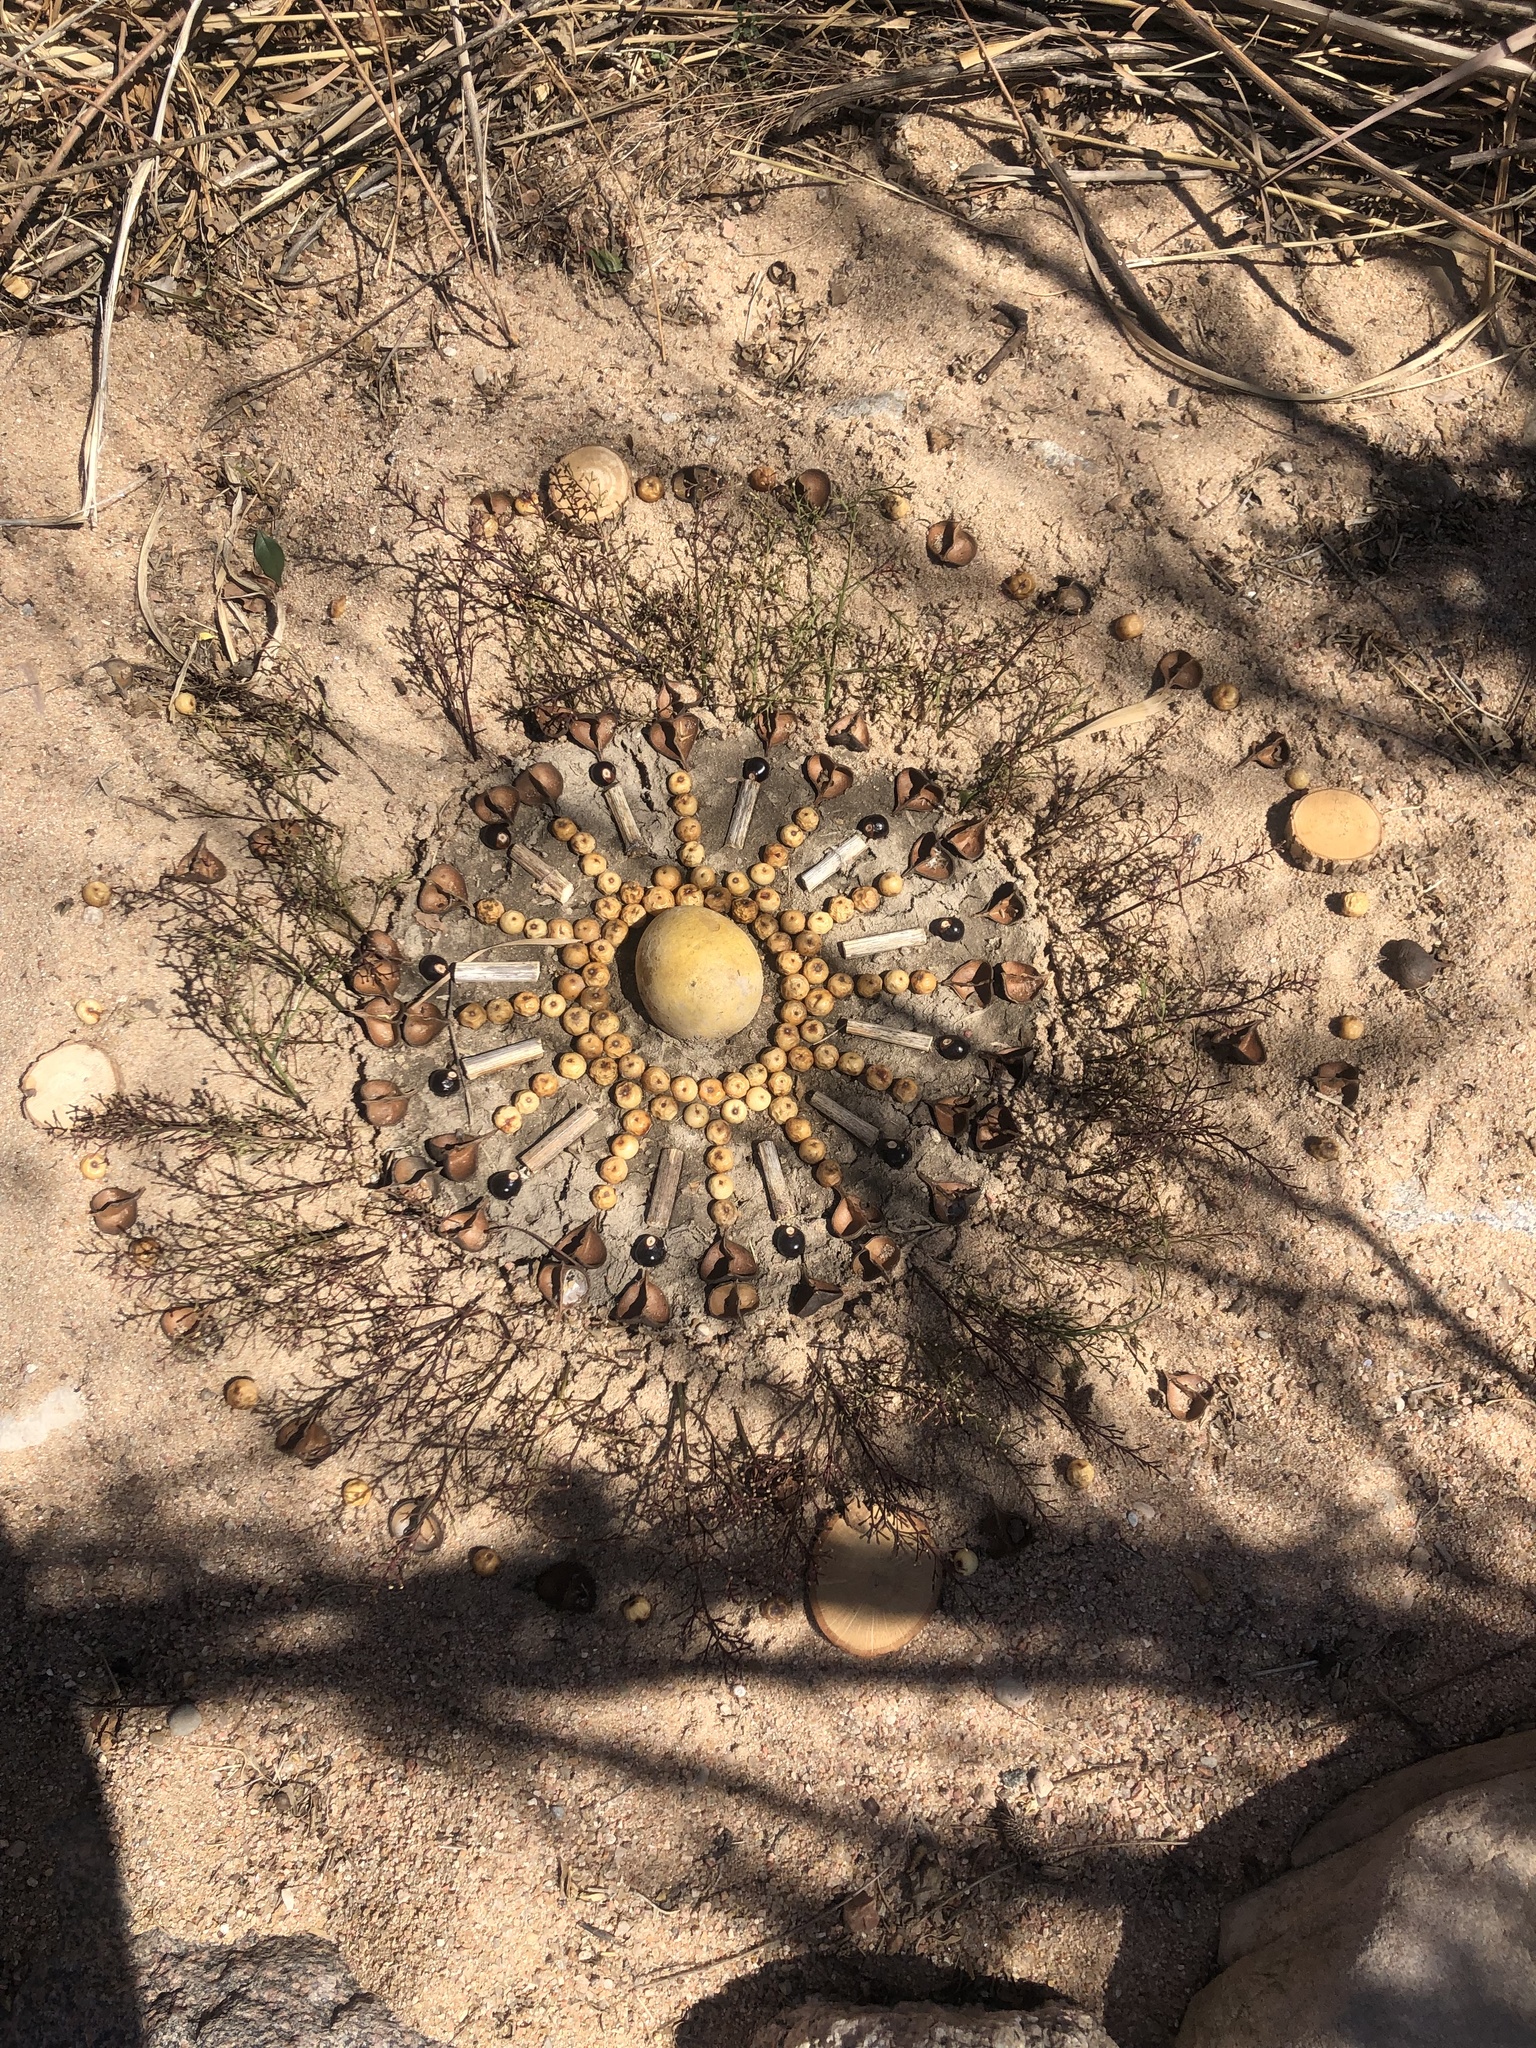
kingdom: Plantae
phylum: Tracheophyta
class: Magnoliopsida
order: Sapindales
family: Sapindaceae
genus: Ungnadia
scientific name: Ungnadia speciosa
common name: Texas-buckeye
